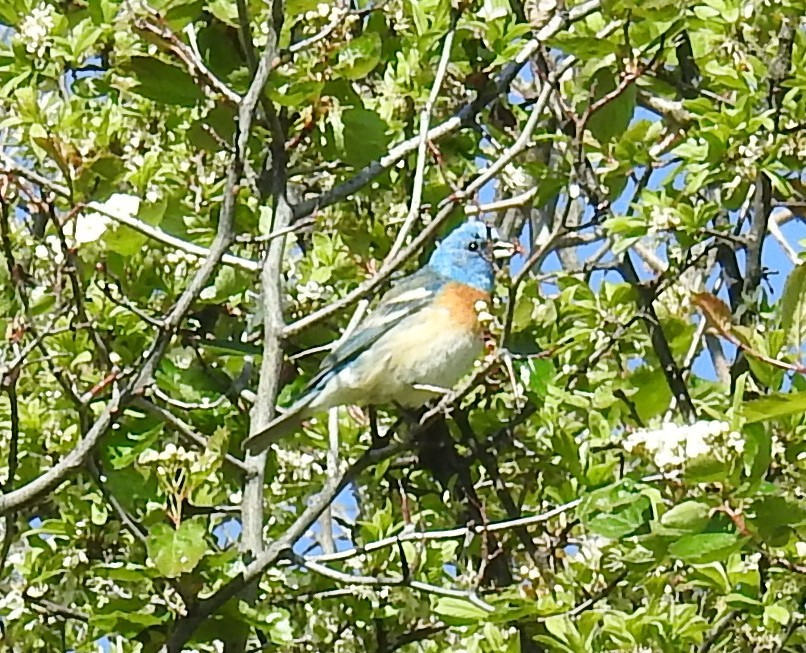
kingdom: Animalia
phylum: Chordata
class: Aves
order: Passeriformes
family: Cardinalidae
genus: Passerina
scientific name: Passerina amoena
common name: Lazuli bunting
